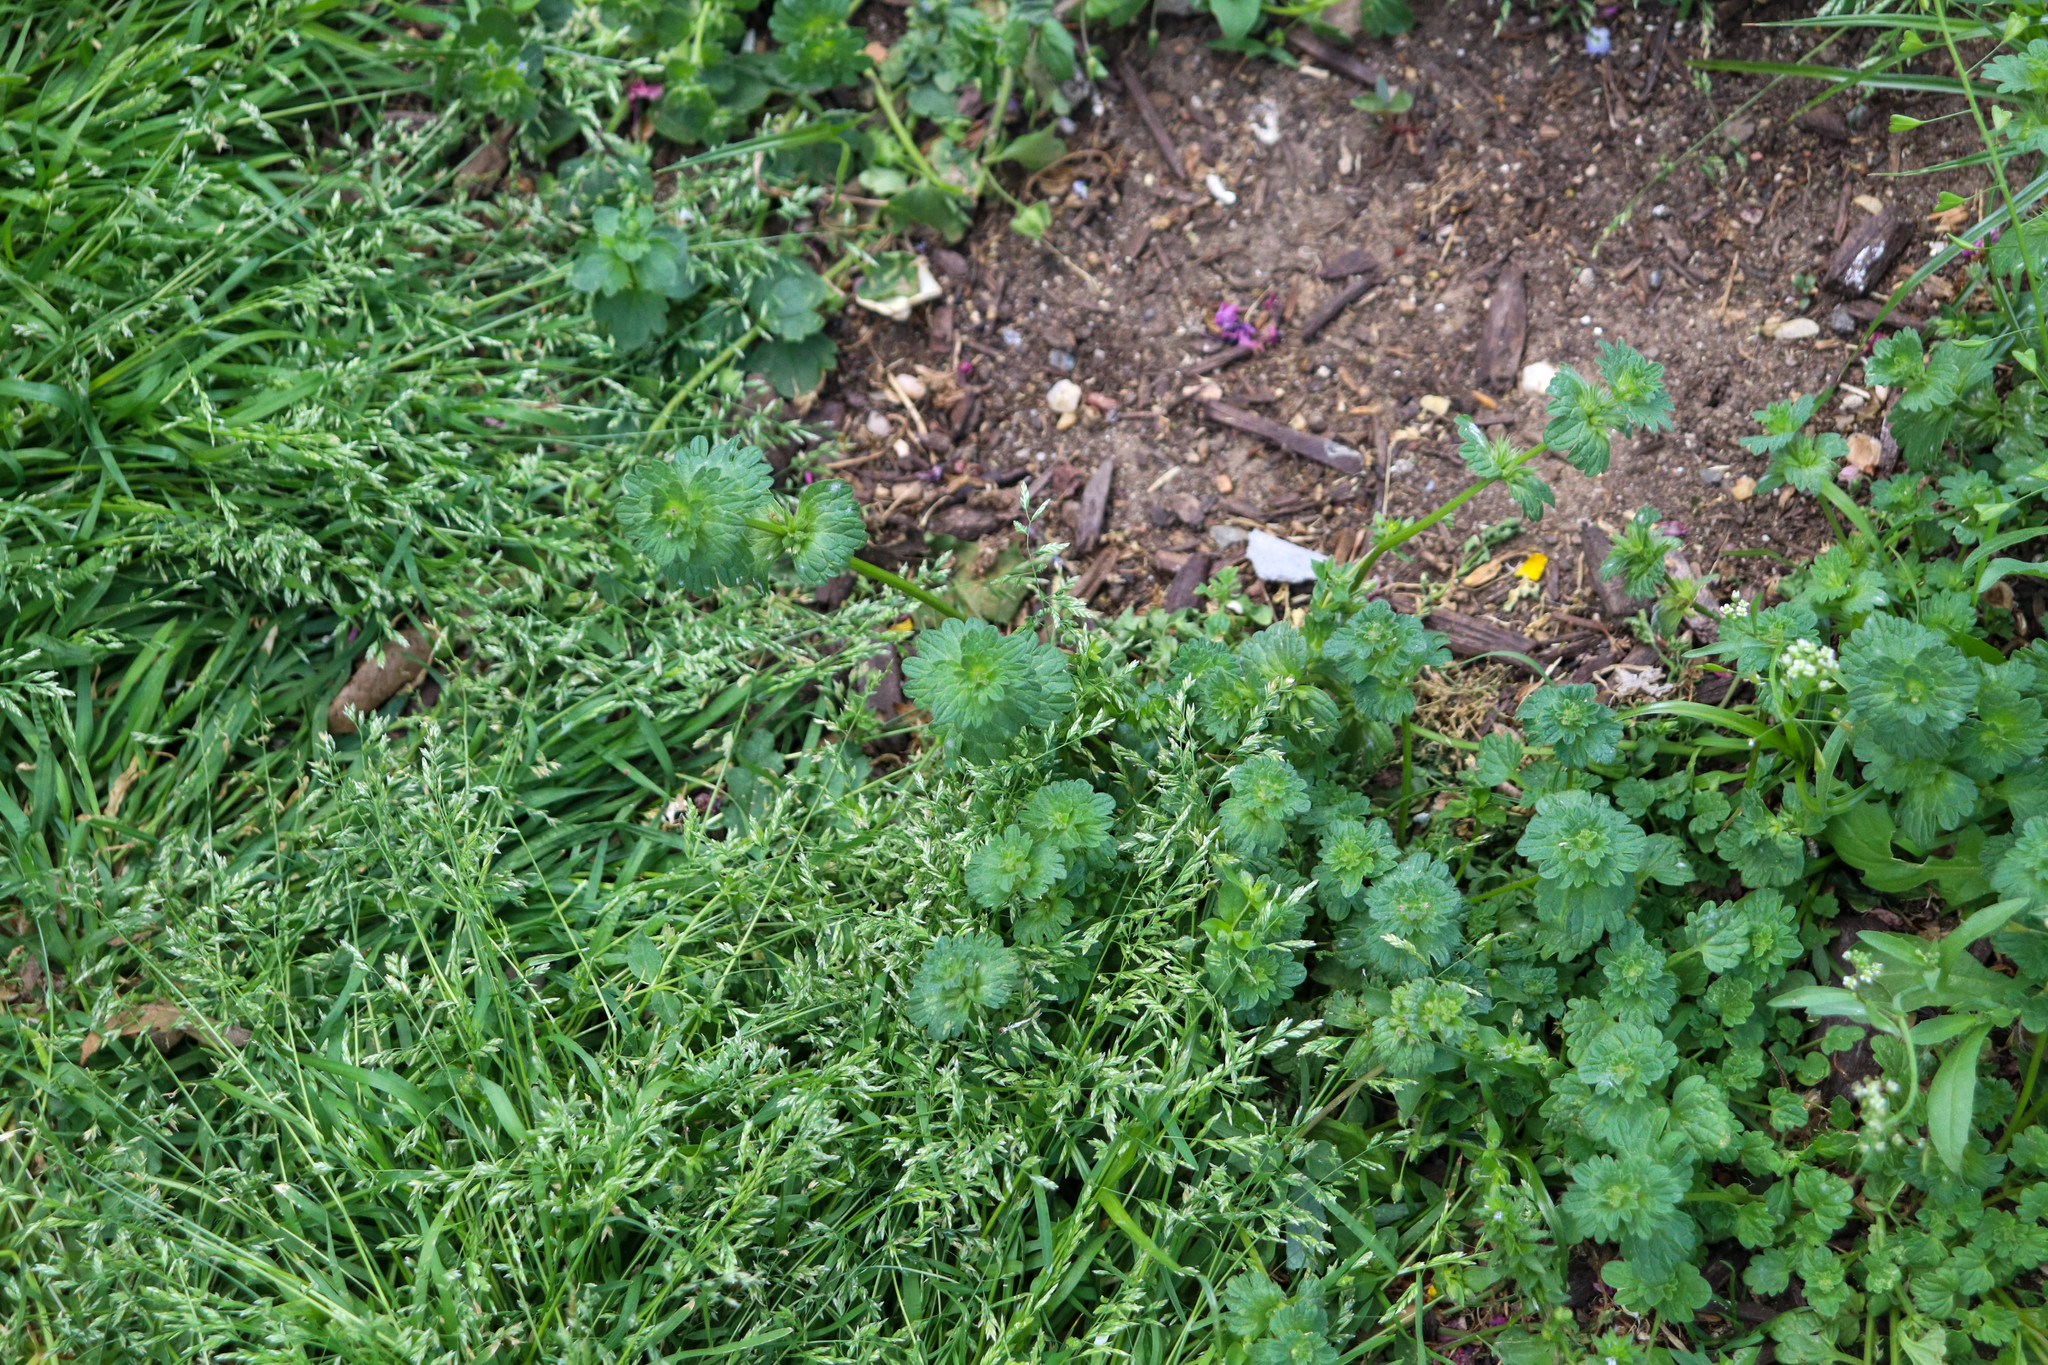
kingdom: Plantae
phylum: Tracheophyta
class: Magnoliopsida
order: Lamiales
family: Lamiaceae
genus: Lamium
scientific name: Lamium amplexicaule
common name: Henbit dead-nettle
